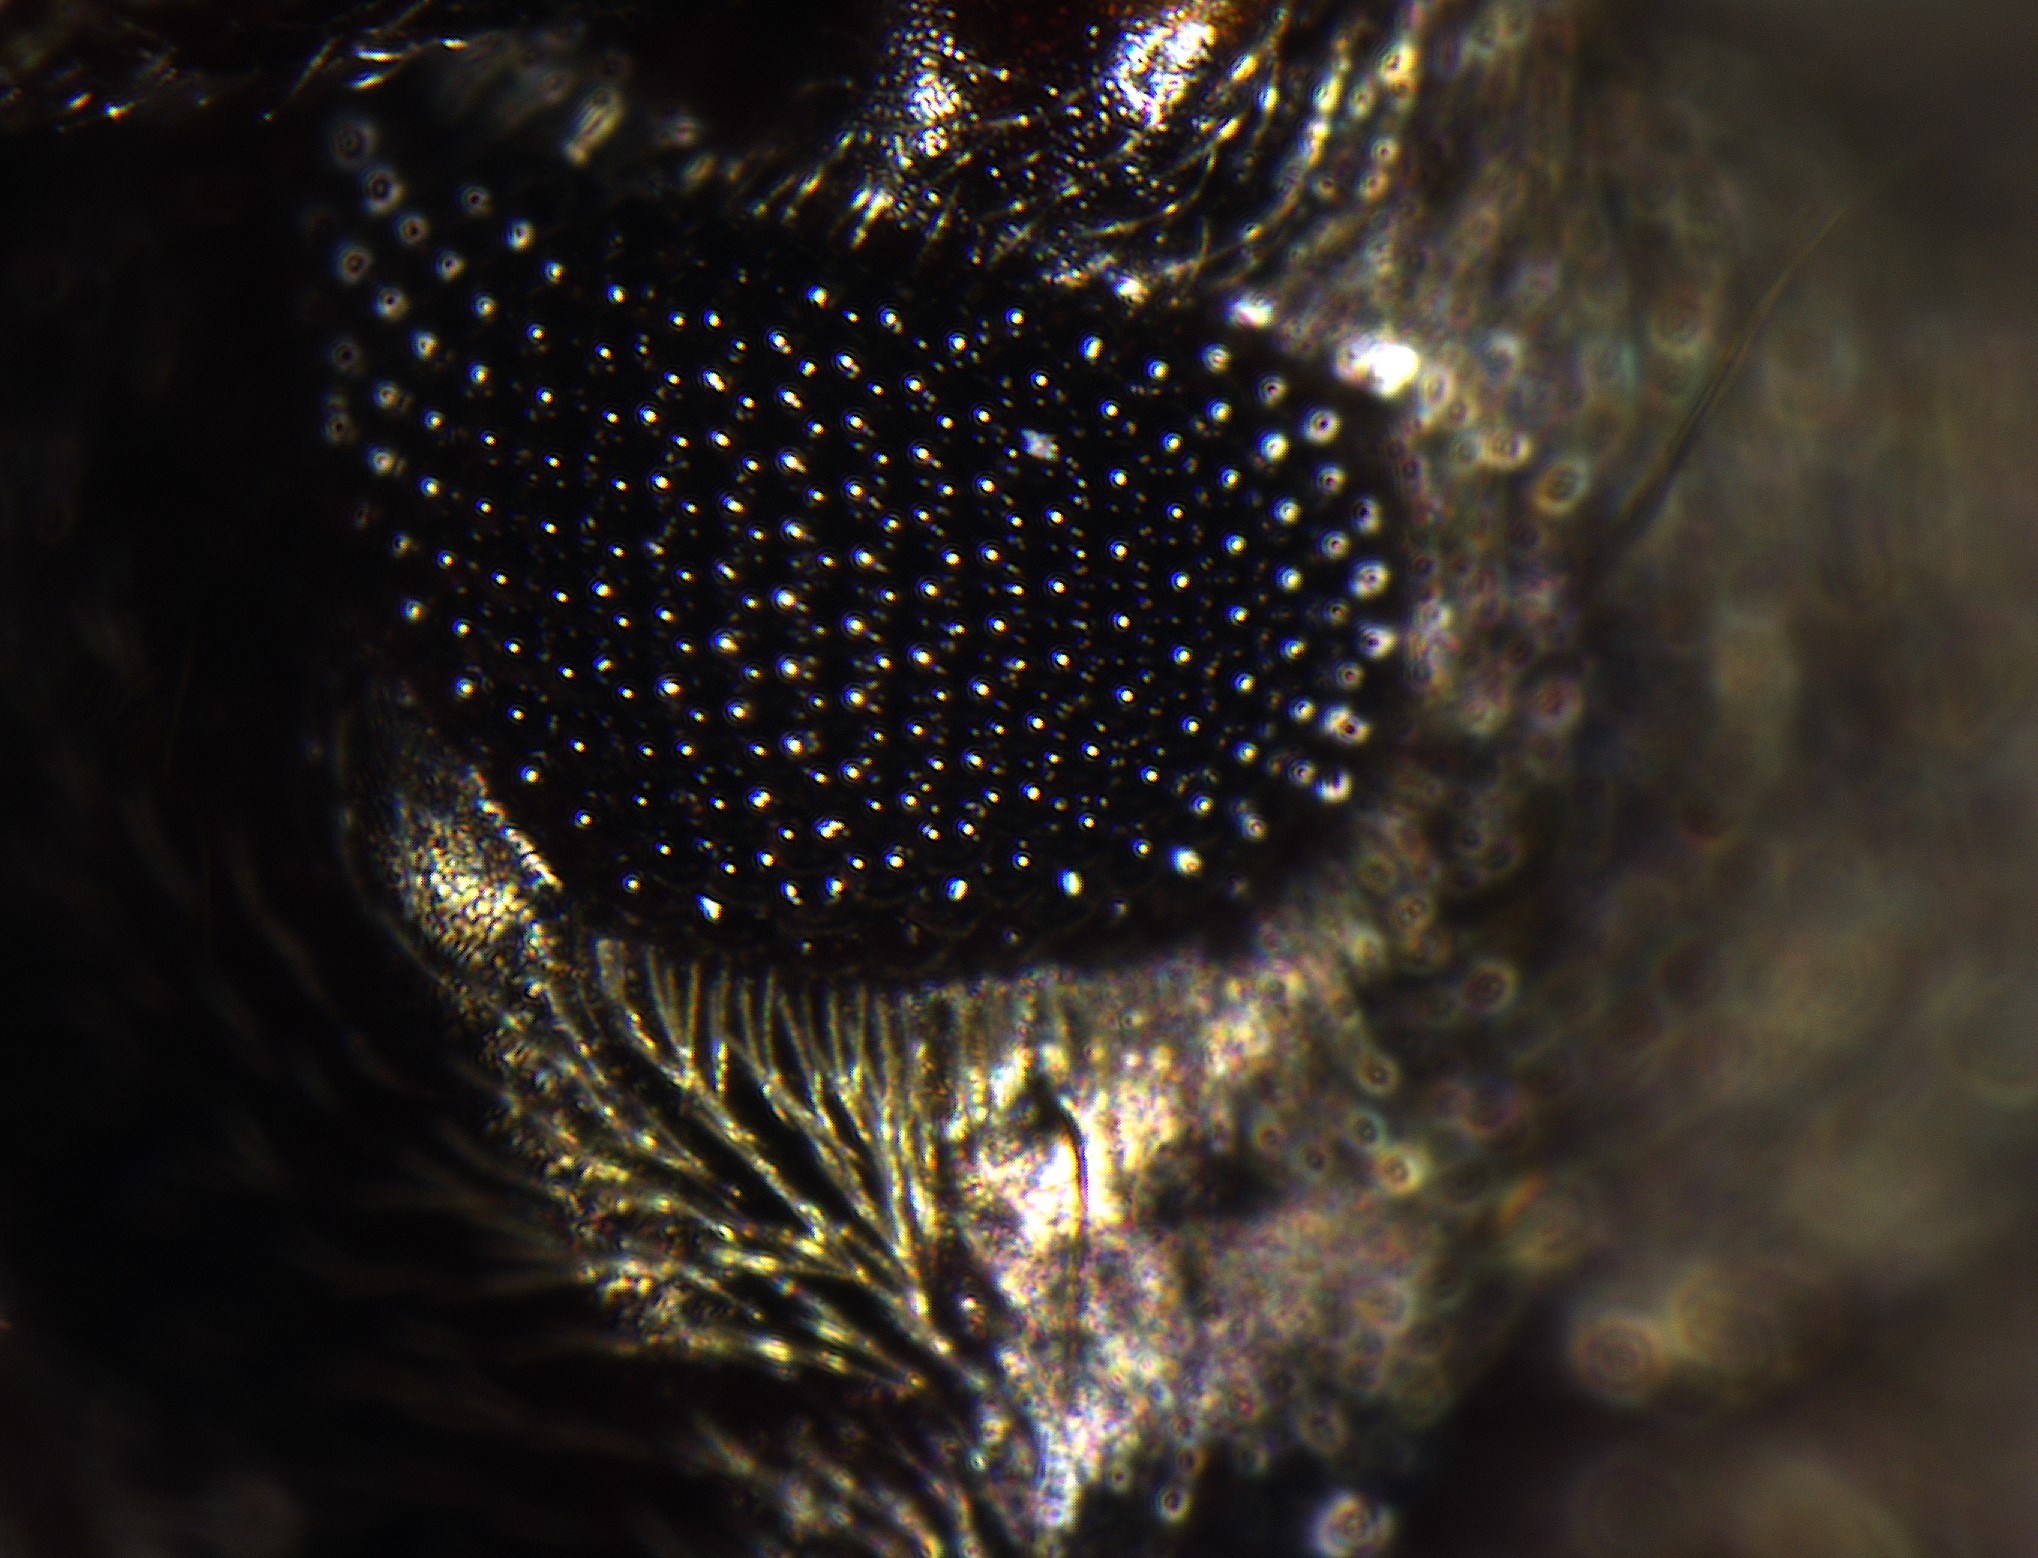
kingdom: Animalia
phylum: Arthropoda
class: Insecta
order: Coleoptera
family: Cerambycidae
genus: Xylotoles
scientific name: Xylotoles griseus
